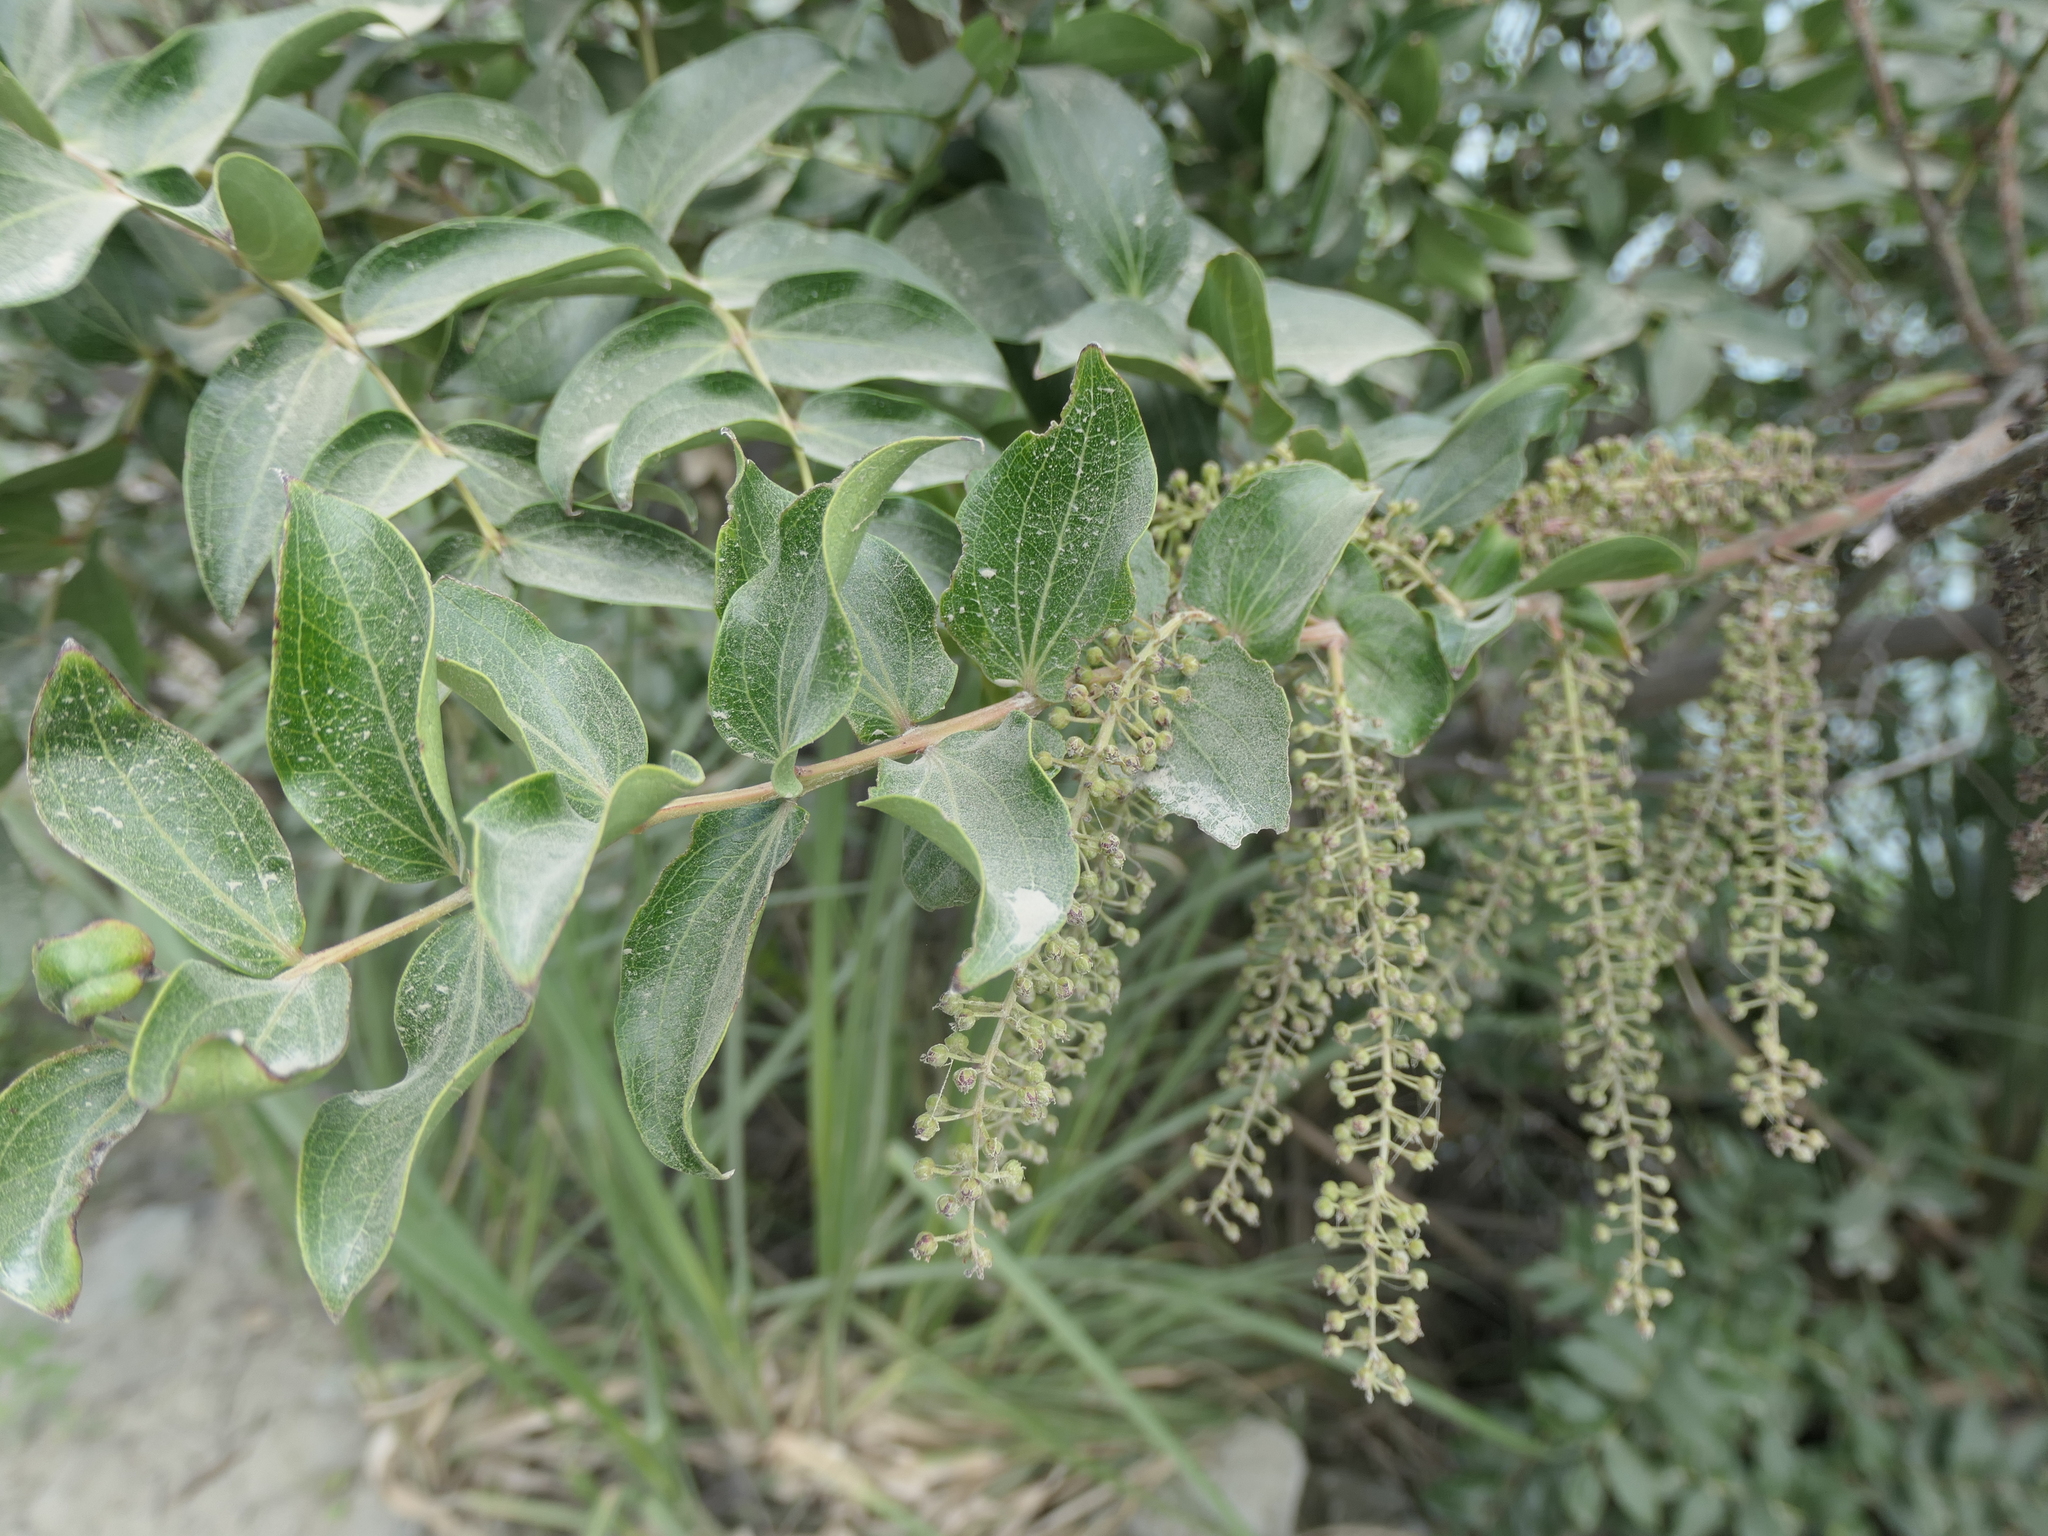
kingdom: Plantae
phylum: Tracheophyta
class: Magnoliopsida
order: Cucurbitales
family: Coriariaceae
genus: Coriaria
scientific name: Coriaria arborea
